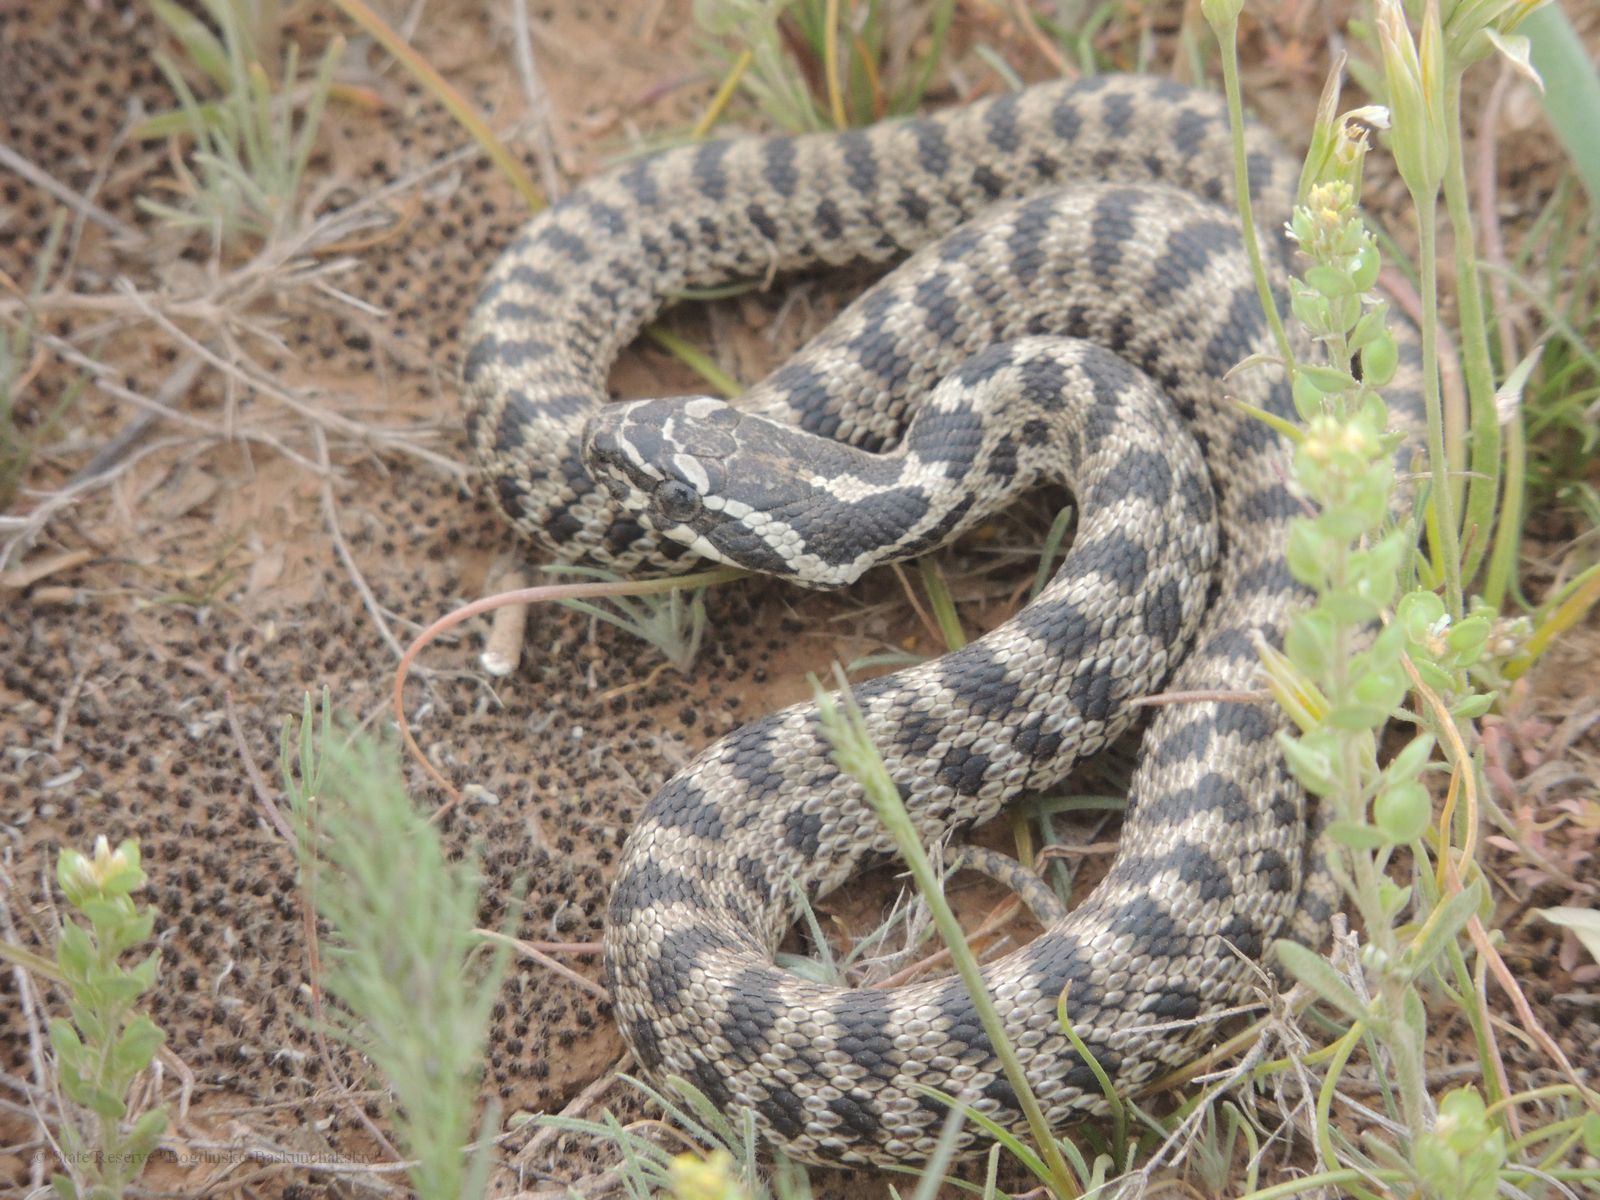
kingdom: Animalia
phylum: Chordata
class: Squamata
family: Colubridae
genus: Elaphe
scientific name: Elaphe sauromates
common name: Eastern four-lined ratsnake
